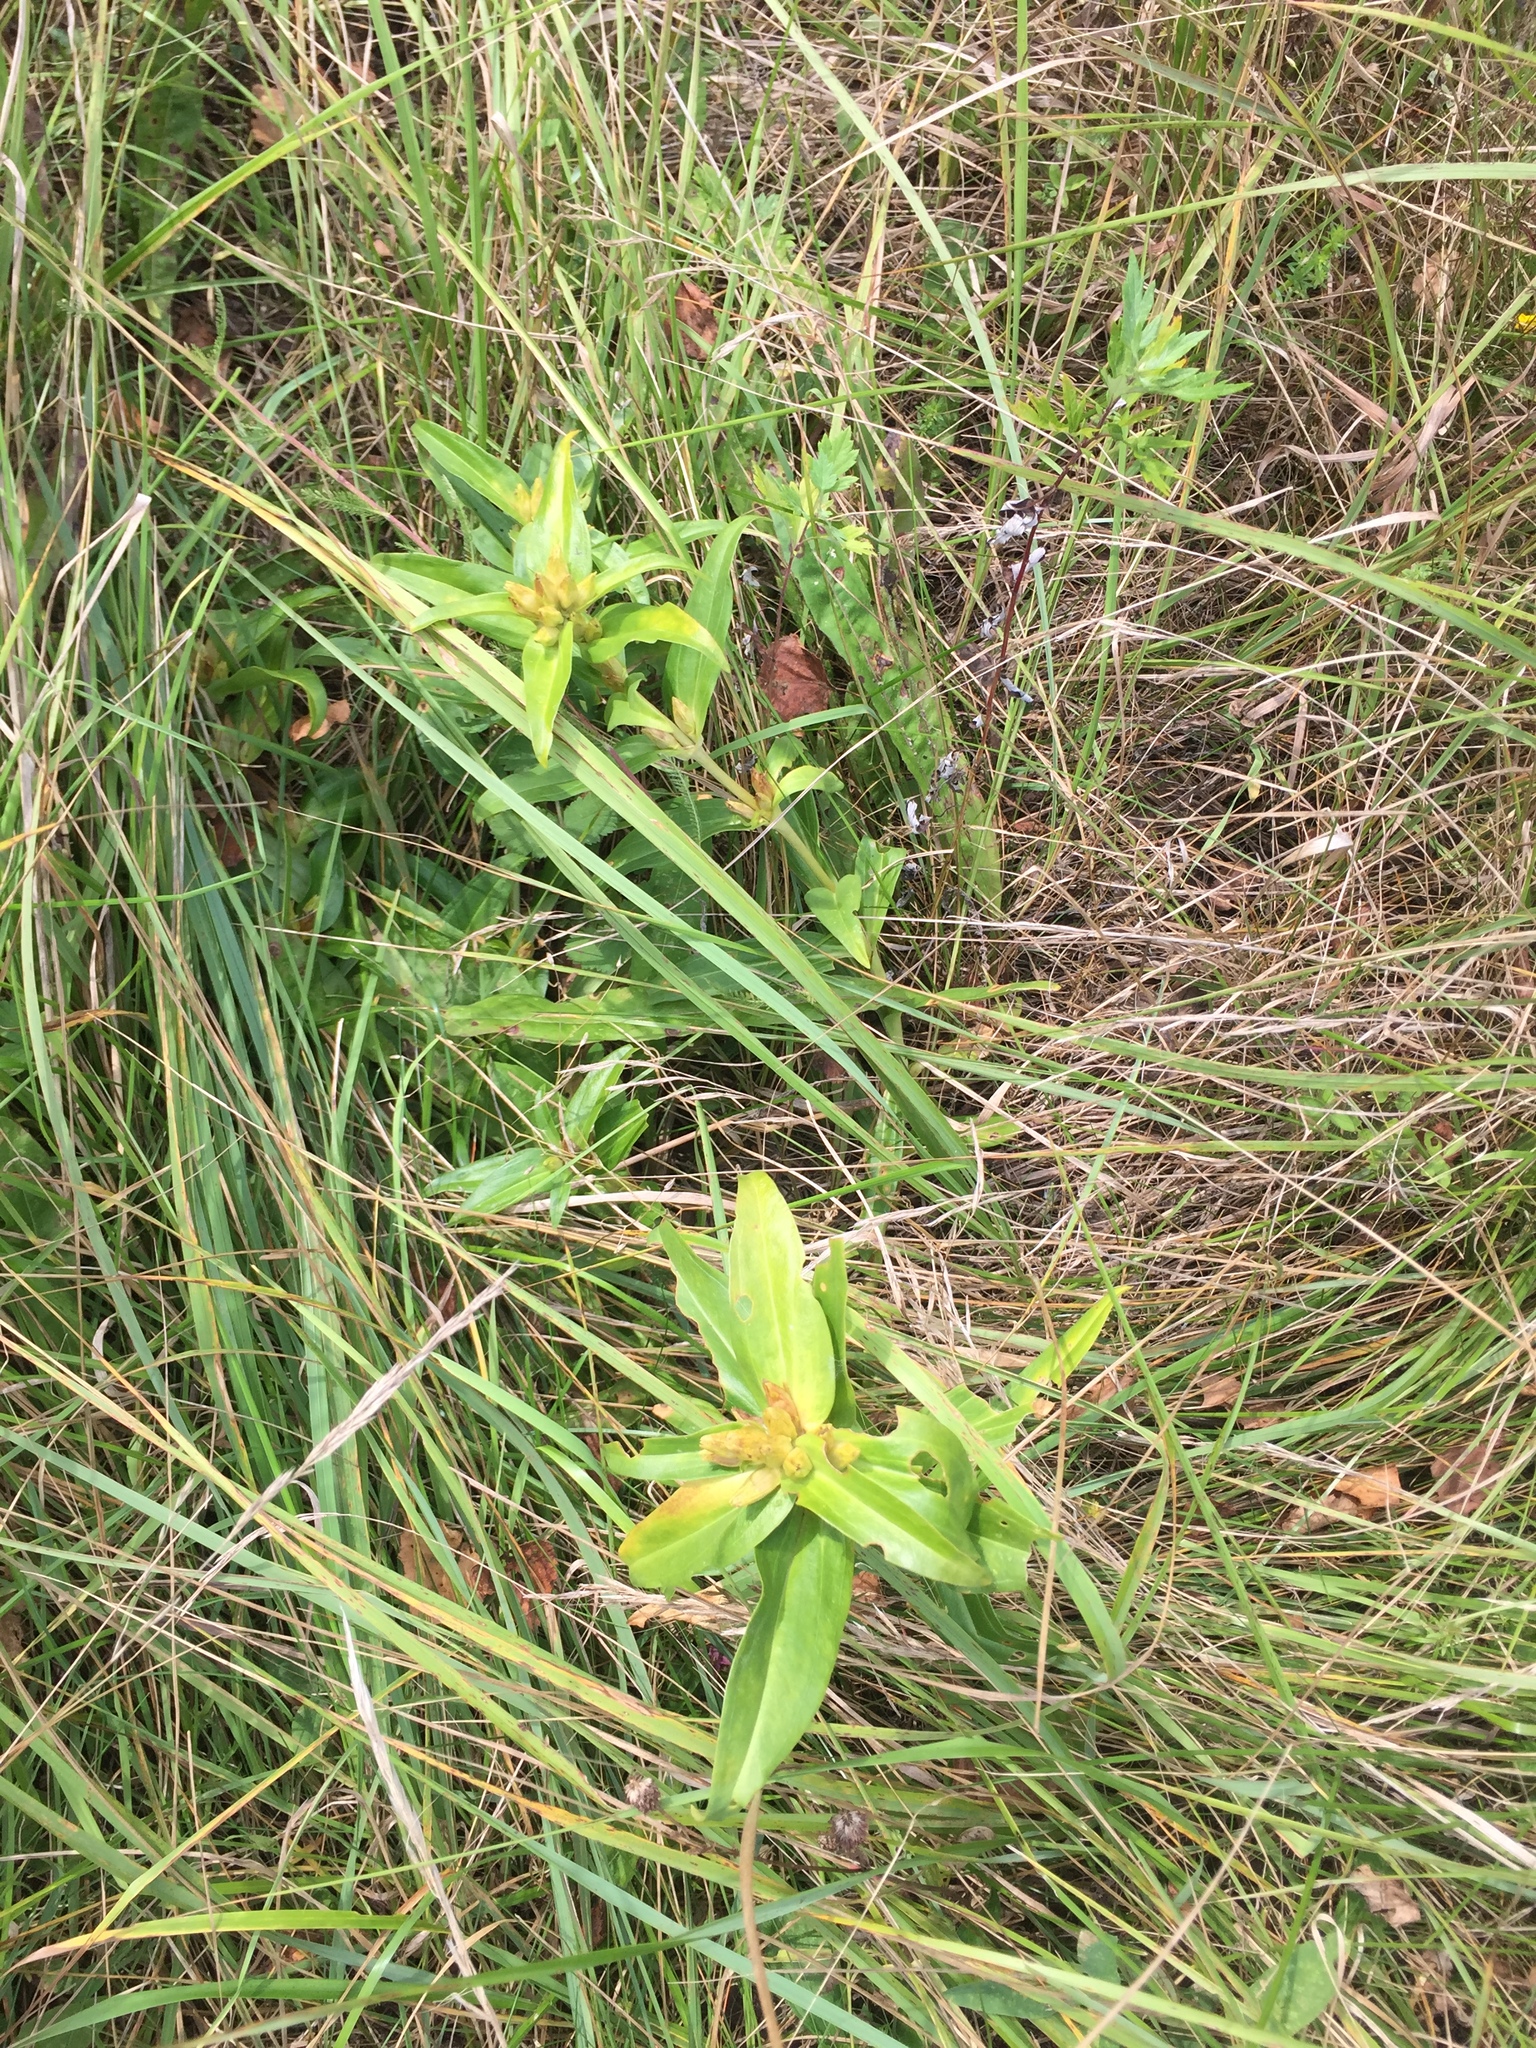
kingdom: Plantae
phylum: Tracheophyta
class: Magnoliopsida
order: Gentianales
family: Gentianaceae
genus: Gentiana
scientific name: Gentiana cruciata
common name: Cross gentian
